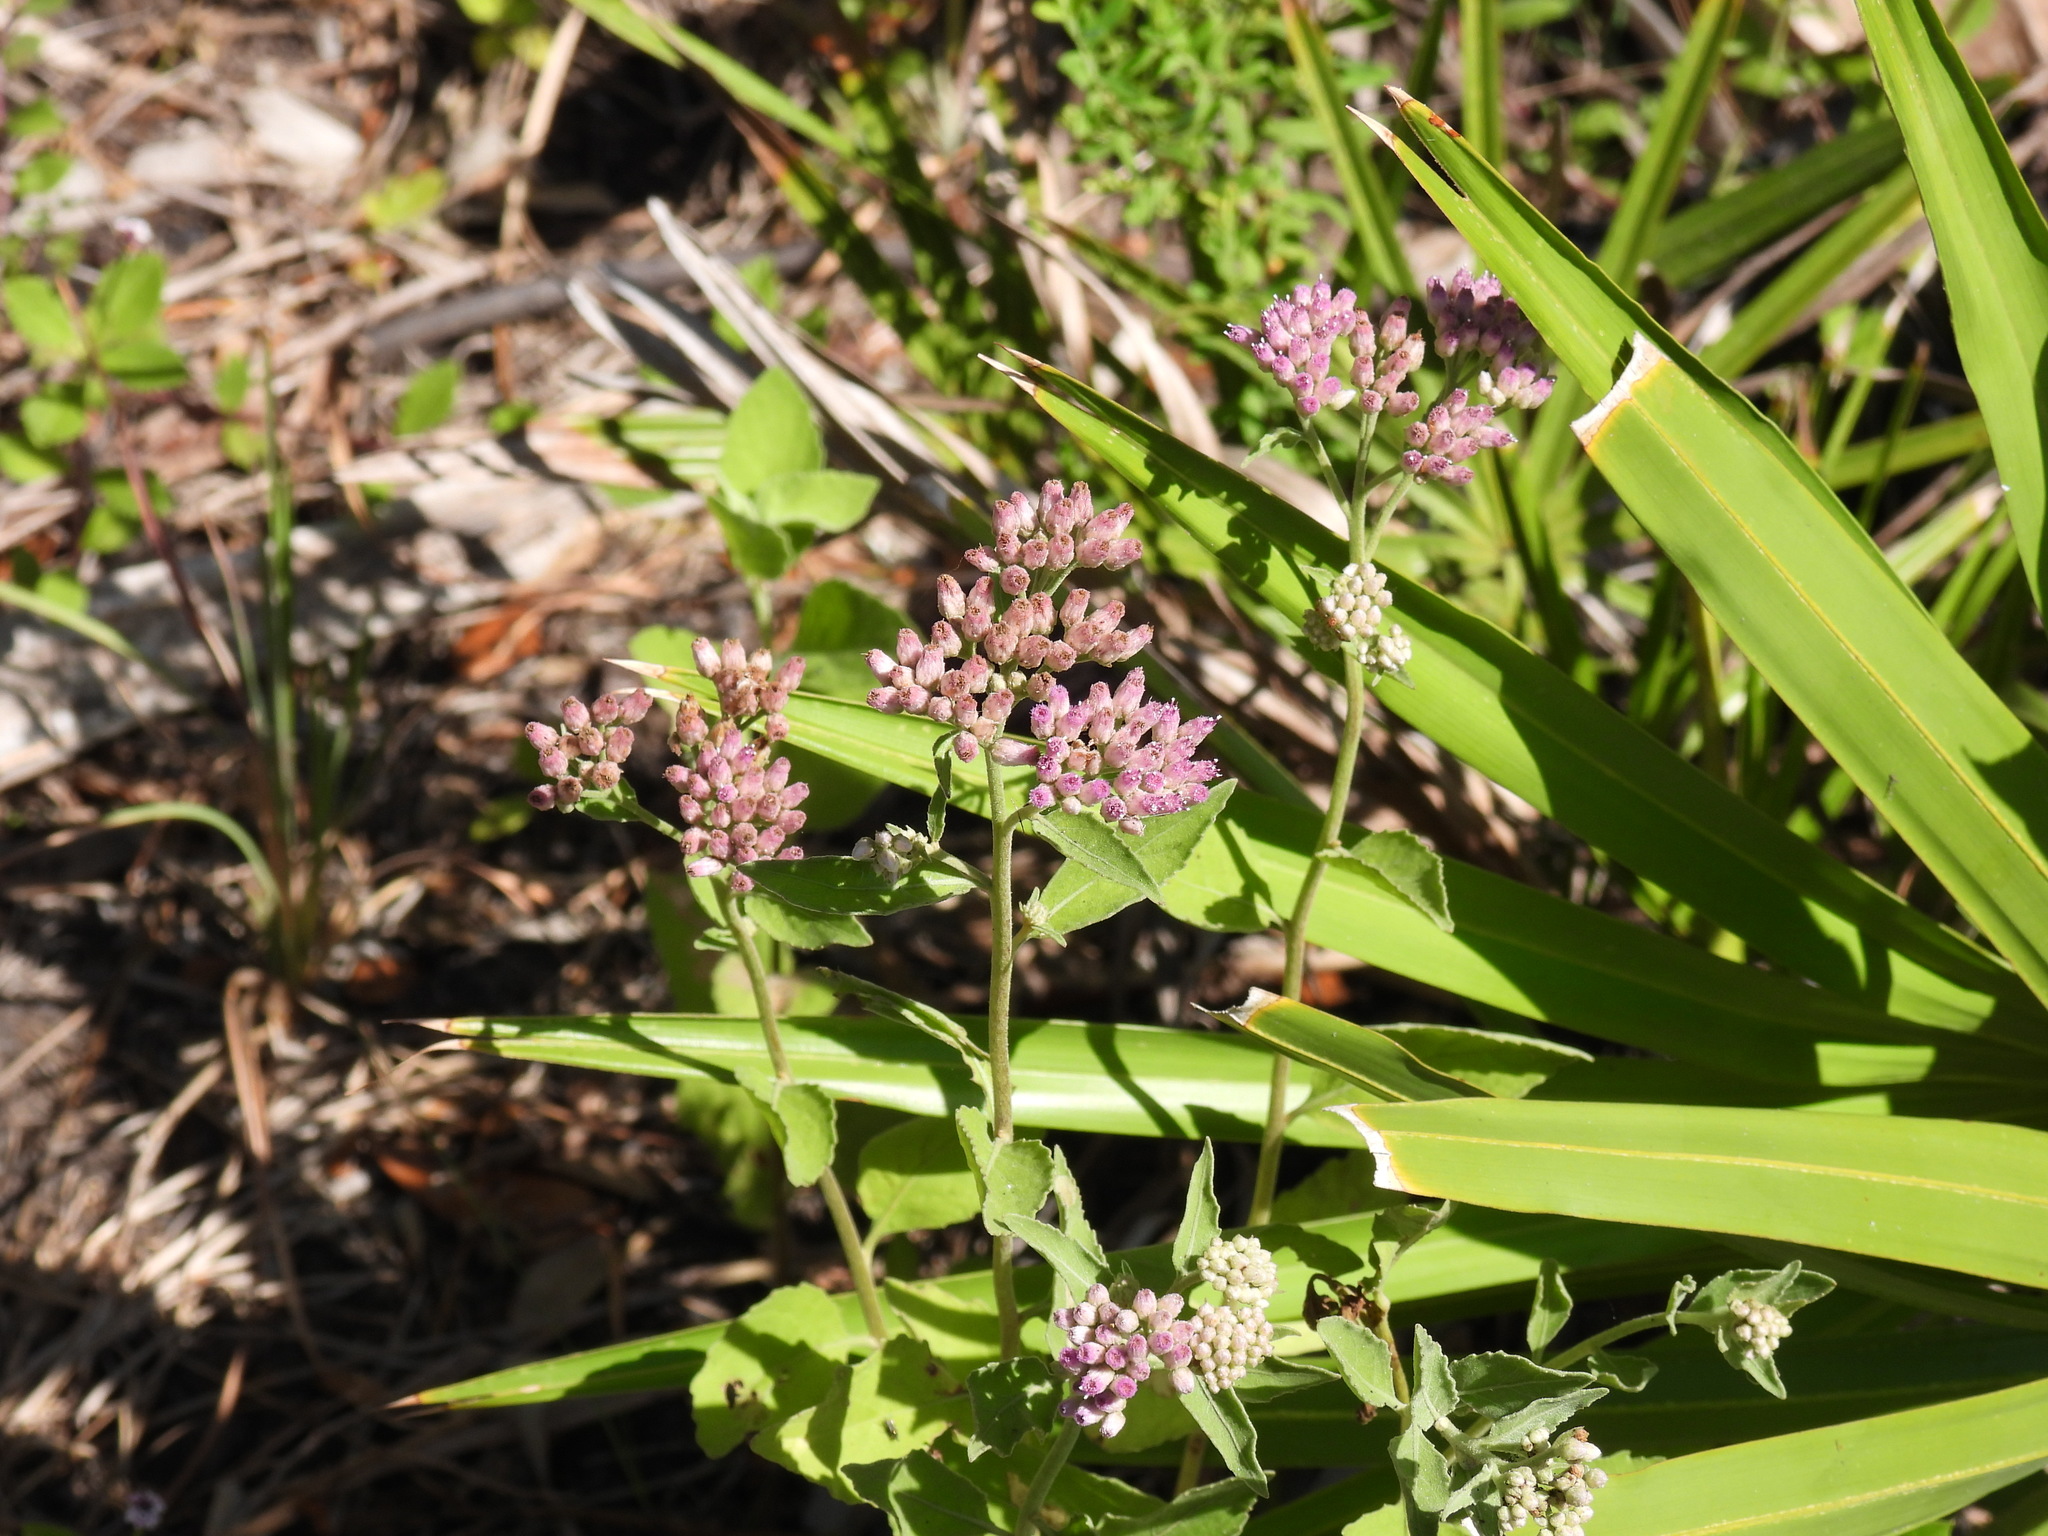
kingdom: Plantae
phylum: Tracheophyta
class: Magnoliopsida
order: Asterales
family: Asteraceae
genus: Pluchea
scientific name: Pluchea odorata
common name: Saltmarsh fleabane
